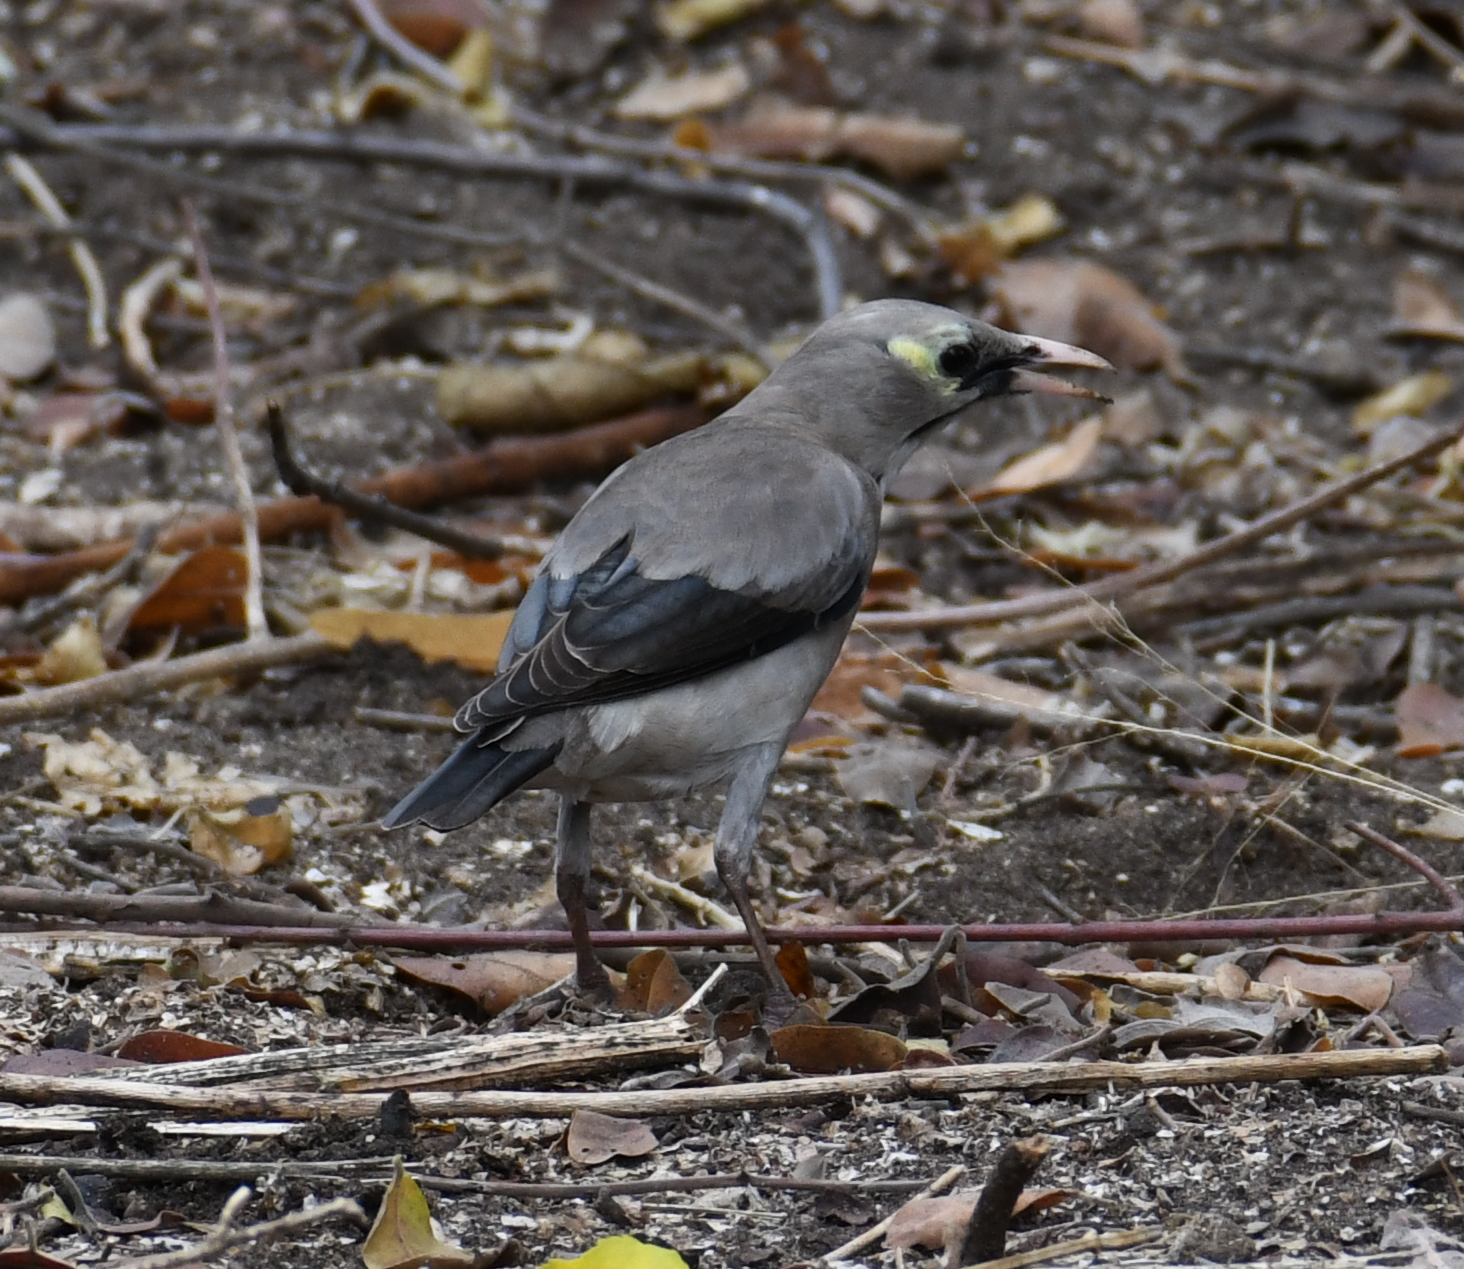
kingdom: Animalia
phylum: Chordata
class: Aves
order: Passeriformes
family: Sturnidae
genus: Creatophora
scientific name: Creatophora cinerea
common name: Wattled starling
